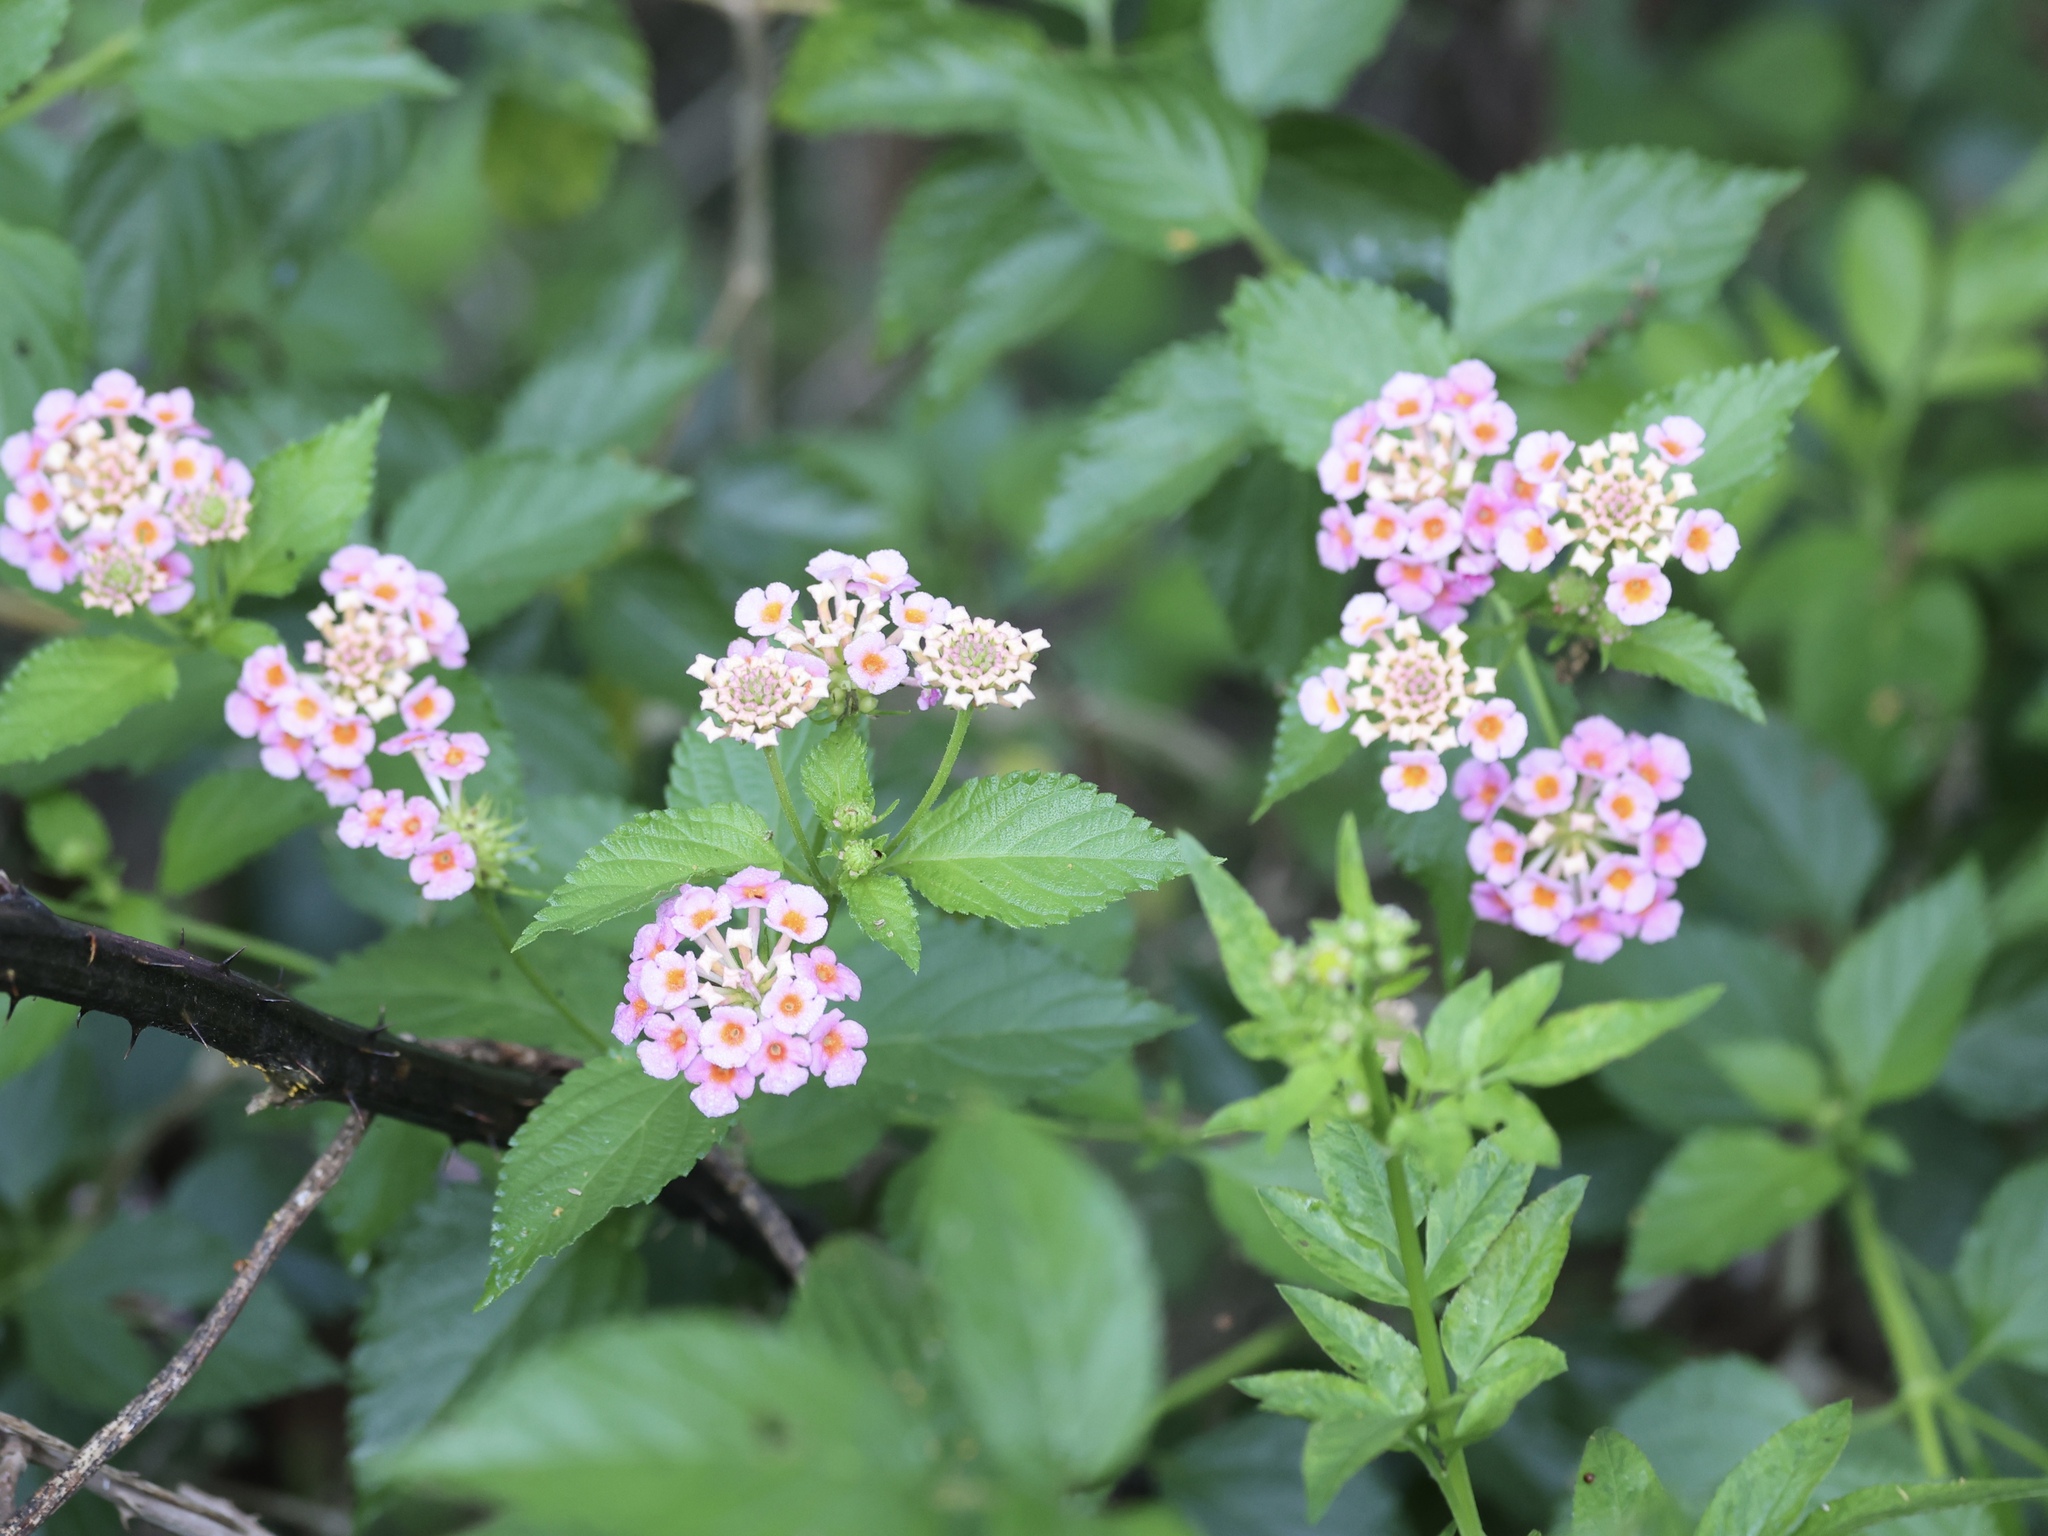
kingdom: Plantae
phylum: Tracheophyta
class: Magnoliopsida
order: Lamiales
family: Verbenaceae
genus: Lantana
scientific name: Lantana strigocamara
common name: Lantana
